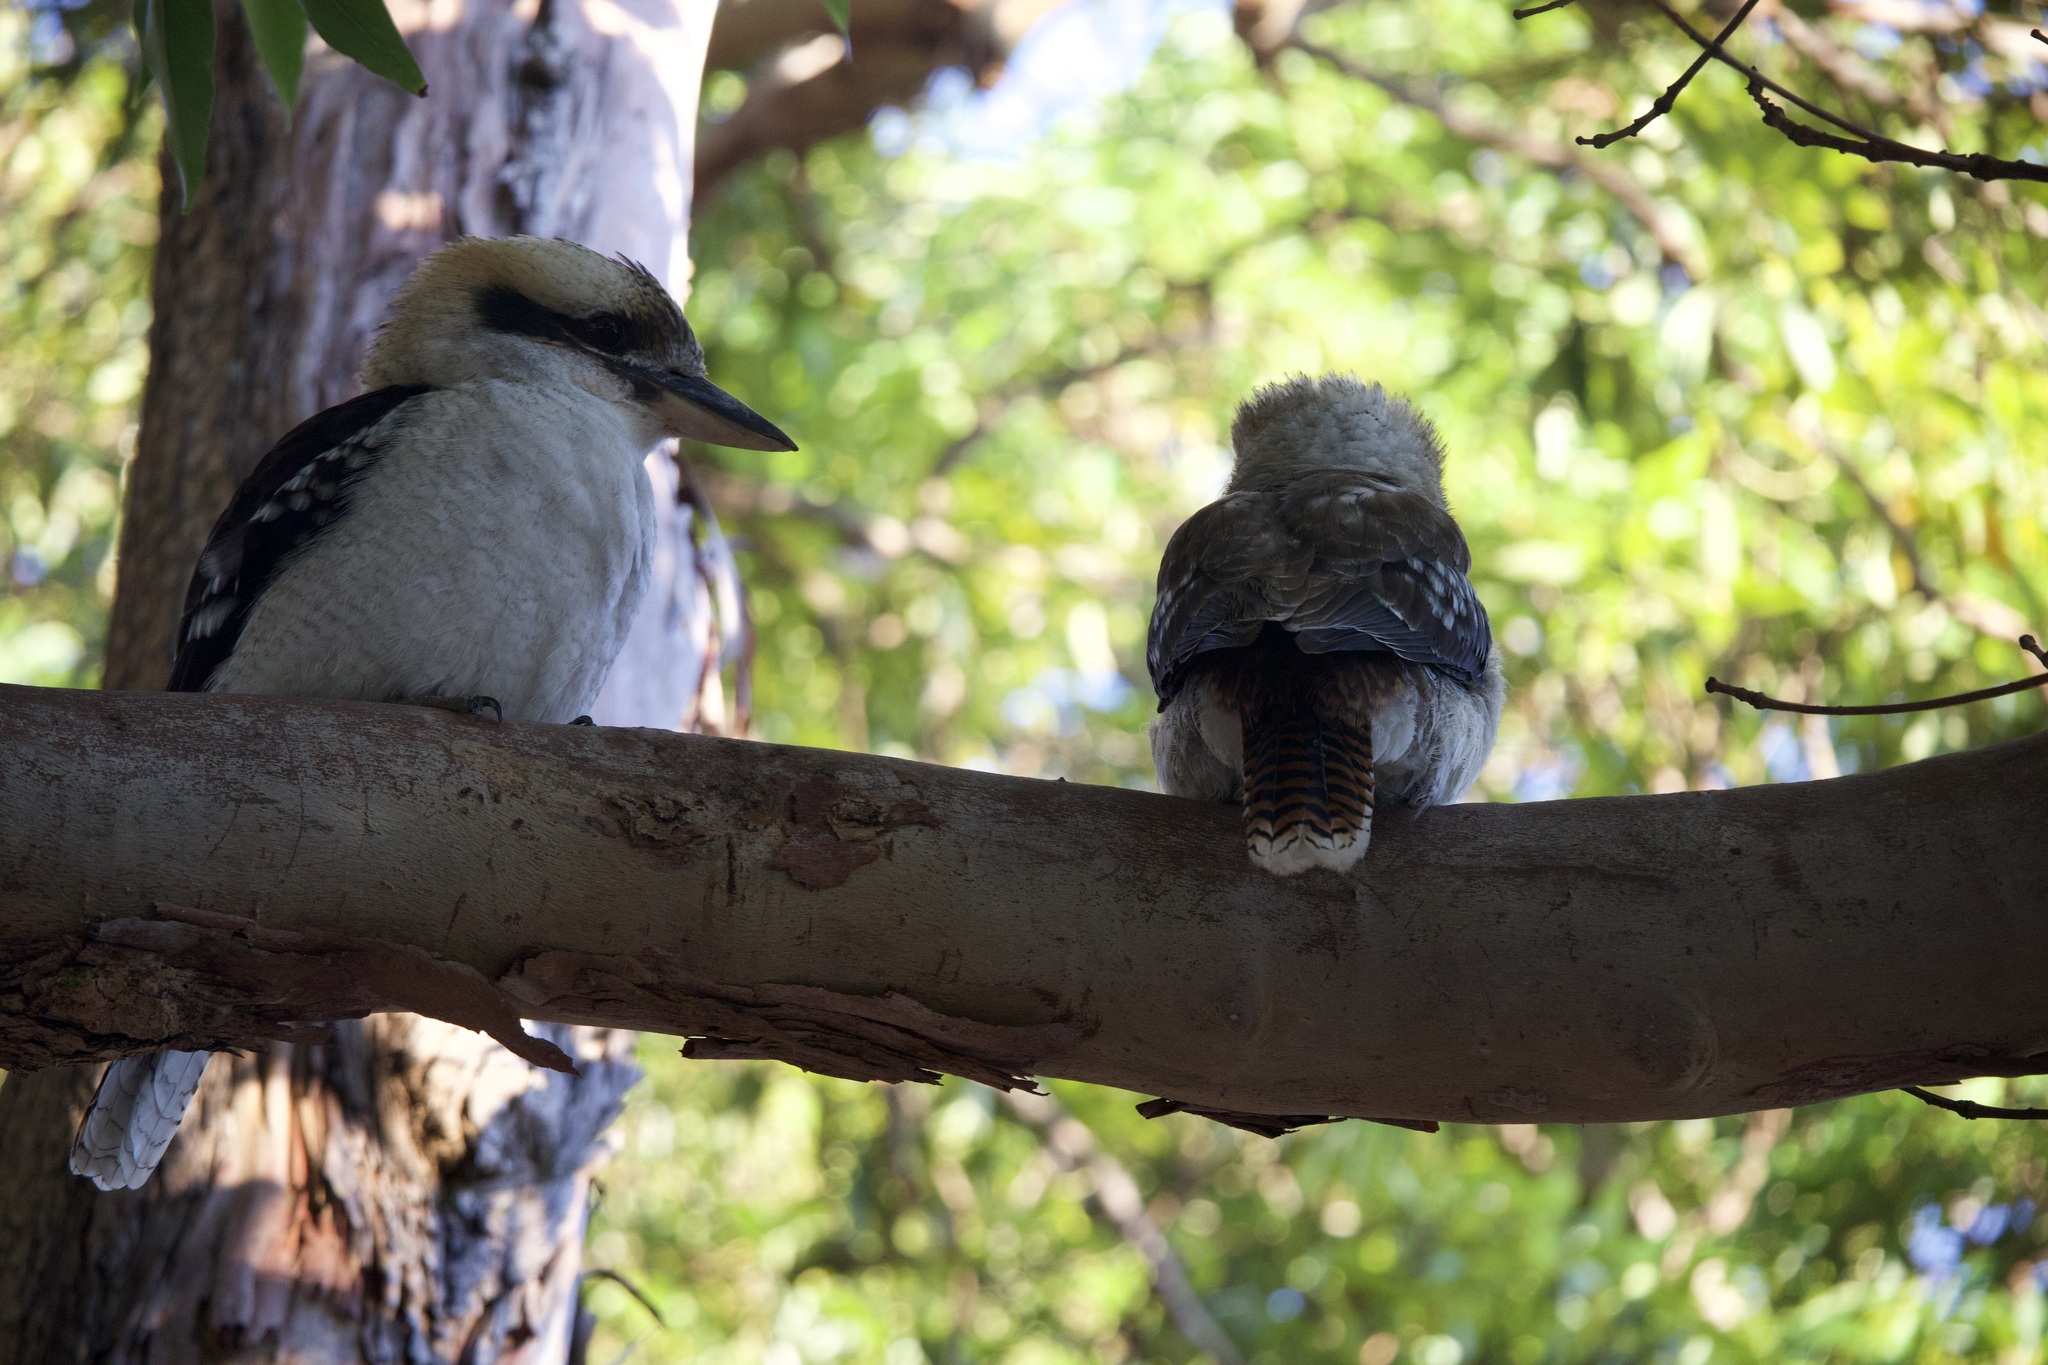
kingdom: Animalia
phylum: Chordata
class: Aves
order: Coraciiformes
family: Alcedinidae
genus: Dacelo
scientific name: Dacelo novaeguineae
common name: Laughing kookaburra
